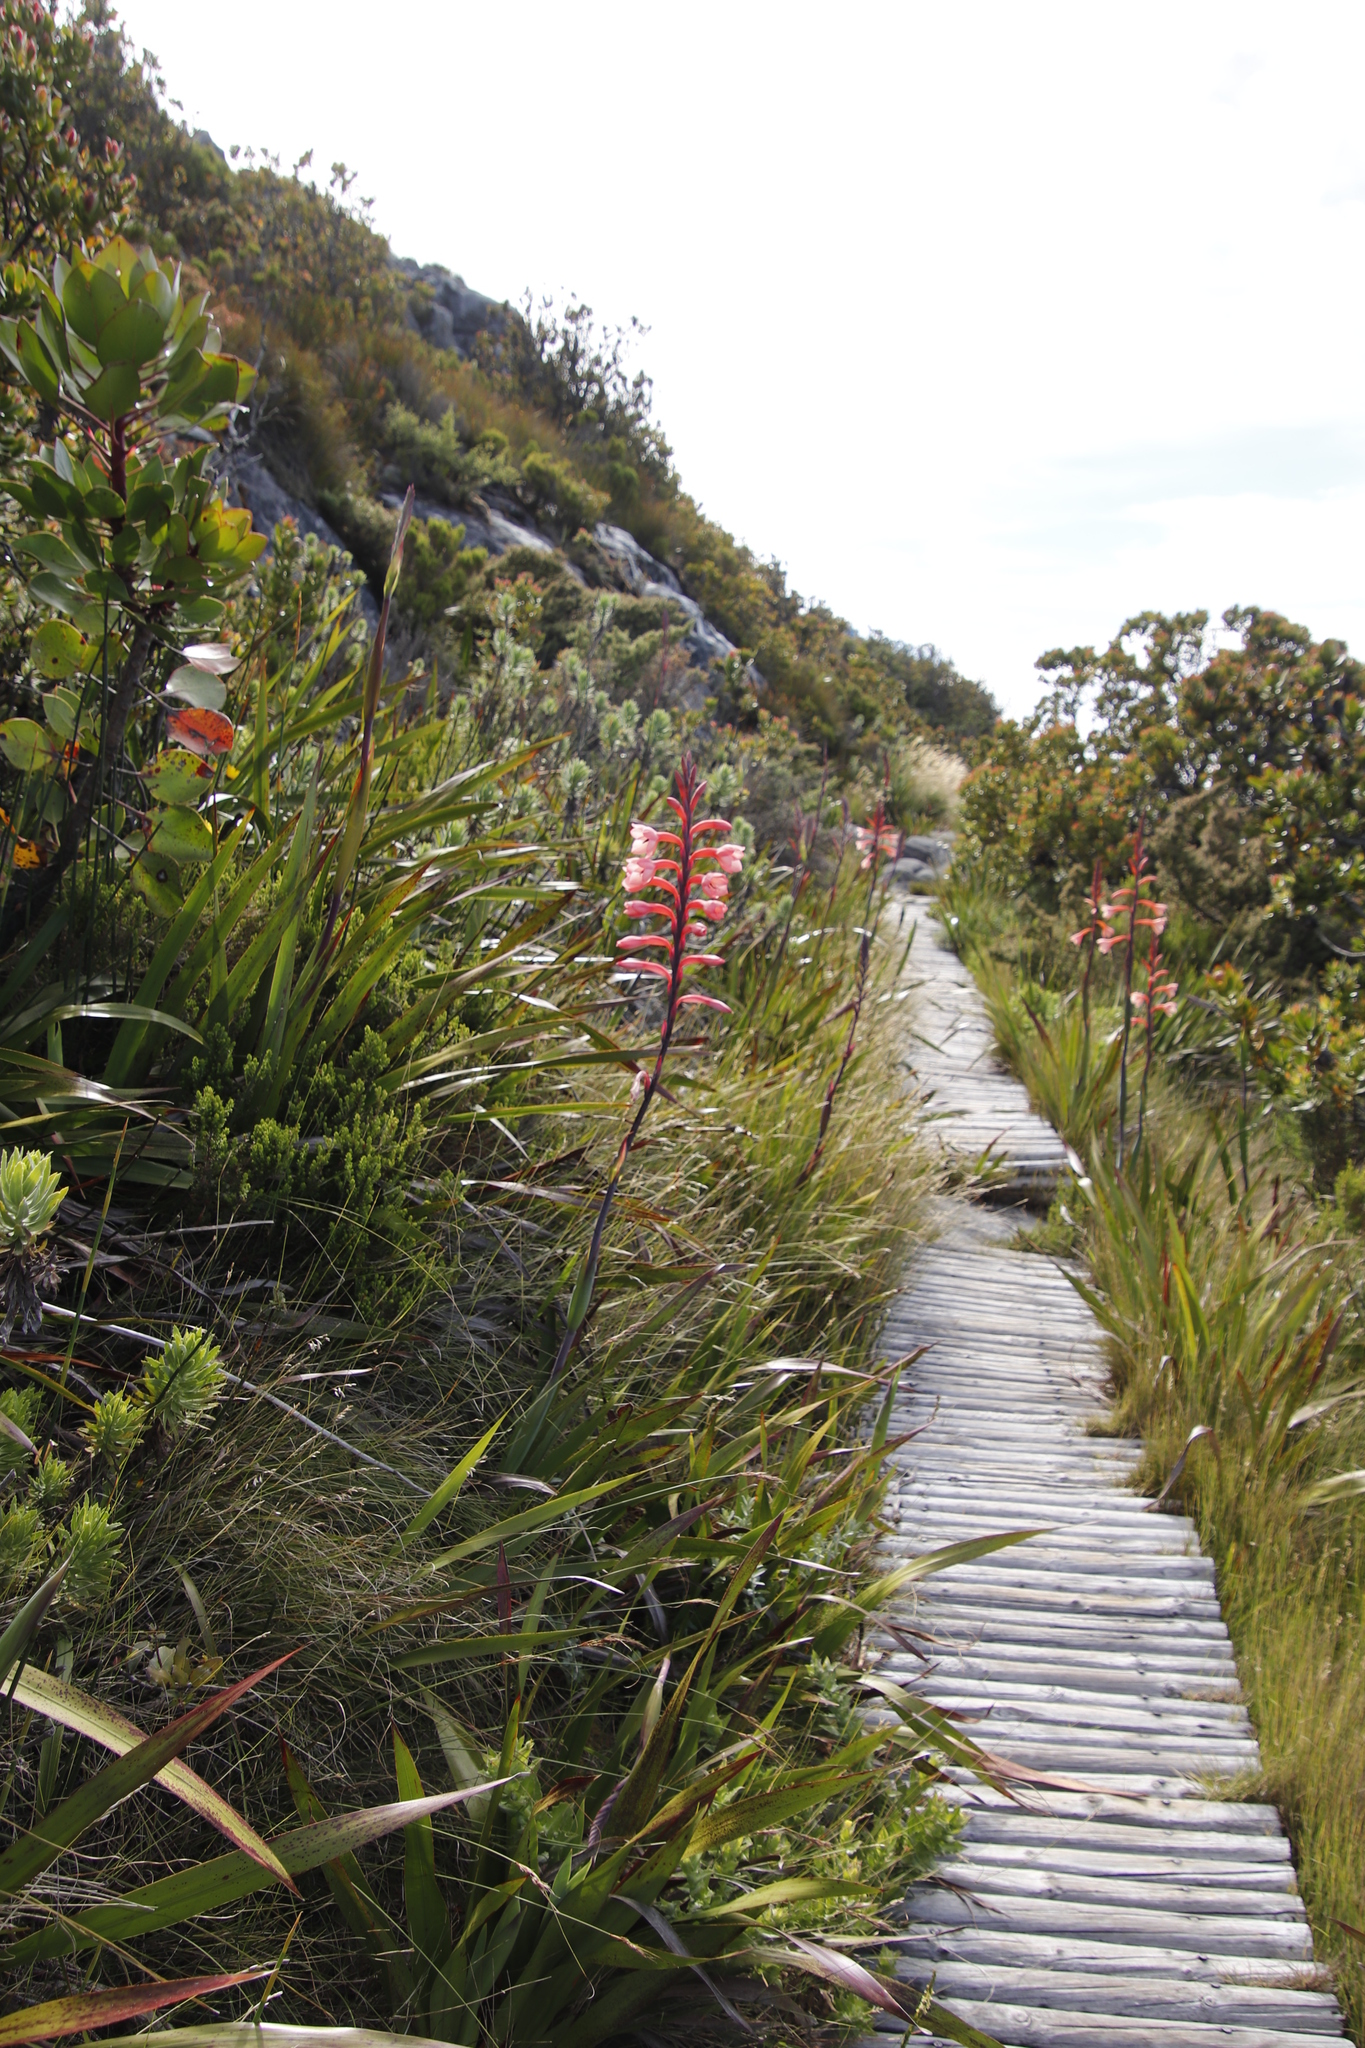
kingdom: Plantae
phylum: Tracheophyta
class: Liliopsida
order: Asparagales
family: Iridaceae
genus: Watsonia
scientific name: Watsonia tabularis
